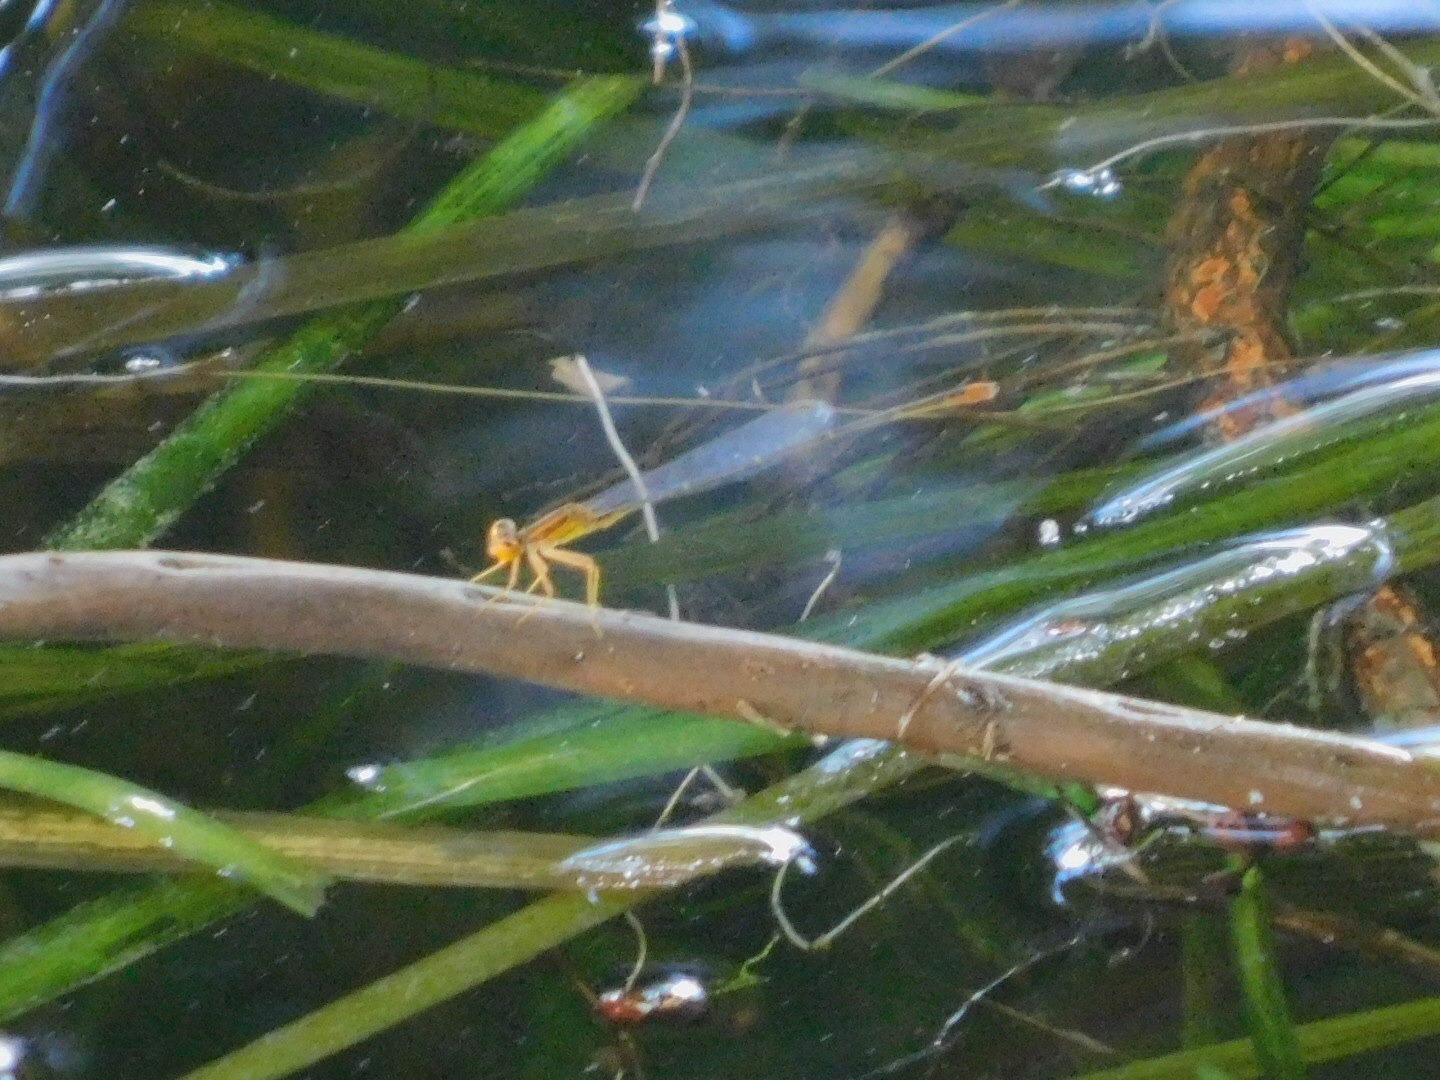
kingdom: Animalia
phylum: Arthropoda
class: Insecta
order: Odonata
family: Coenagrionidae
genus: Enallagma
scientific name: Enallagma pollutum
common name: Florida bluet
